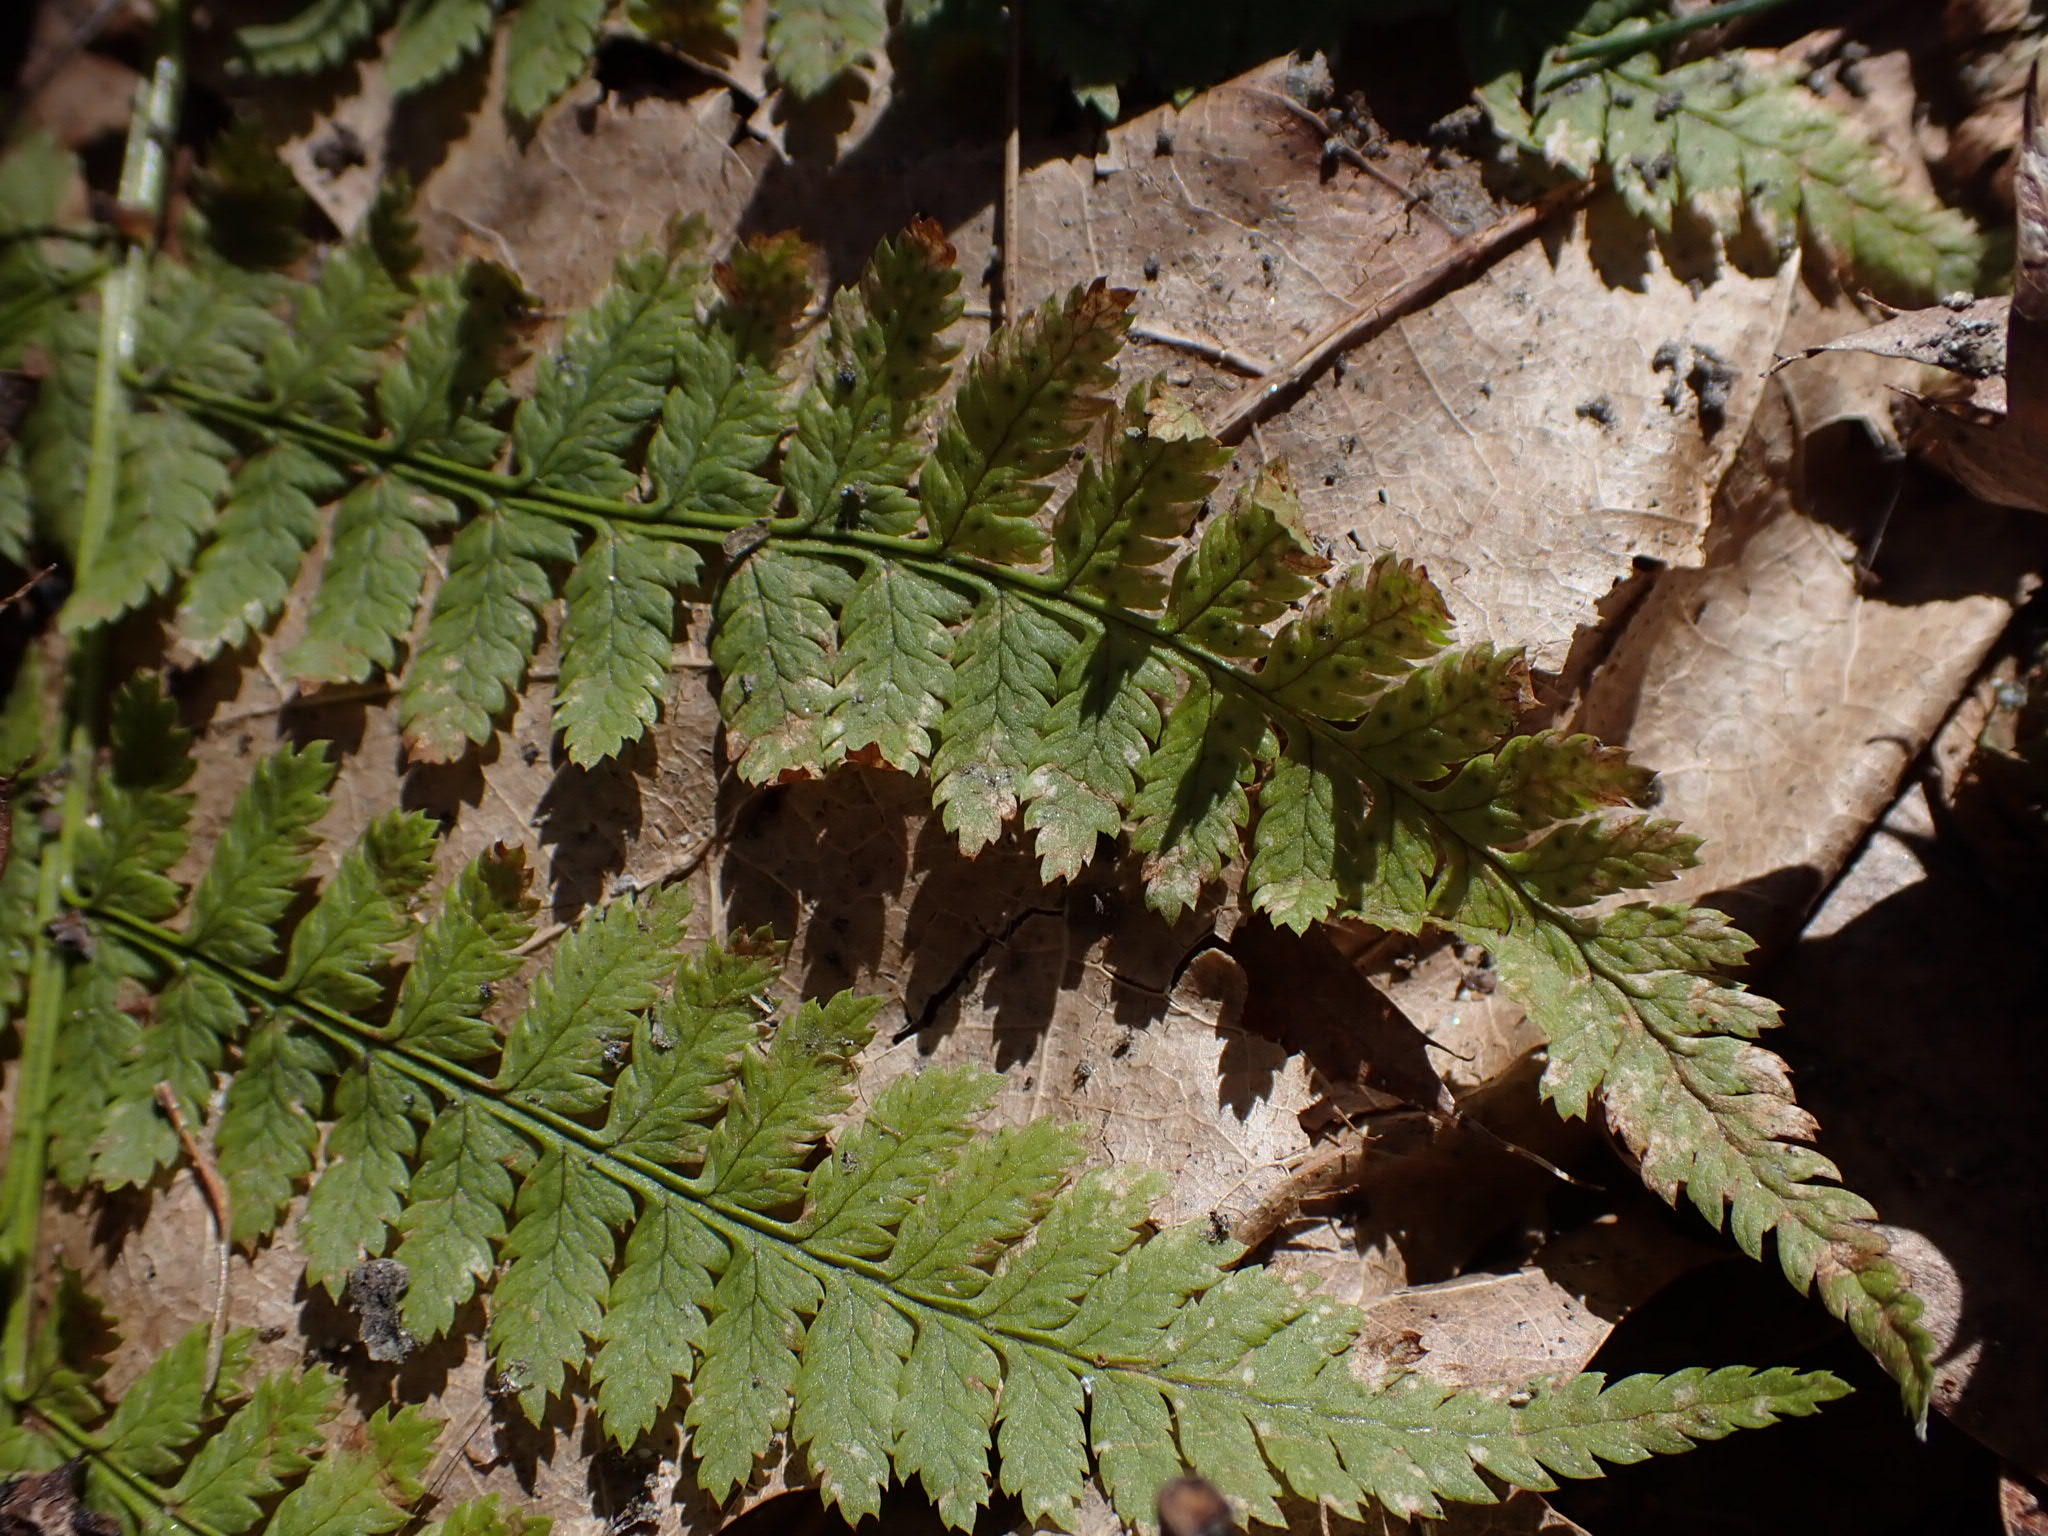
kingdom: Plantae
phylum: Tracheophyta
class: Polypodiopsida
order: Polypodiales
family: Dryopteridaceae
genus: Dryopteris
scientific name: Dryopteris intermedia
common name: Evergreen wood fern
